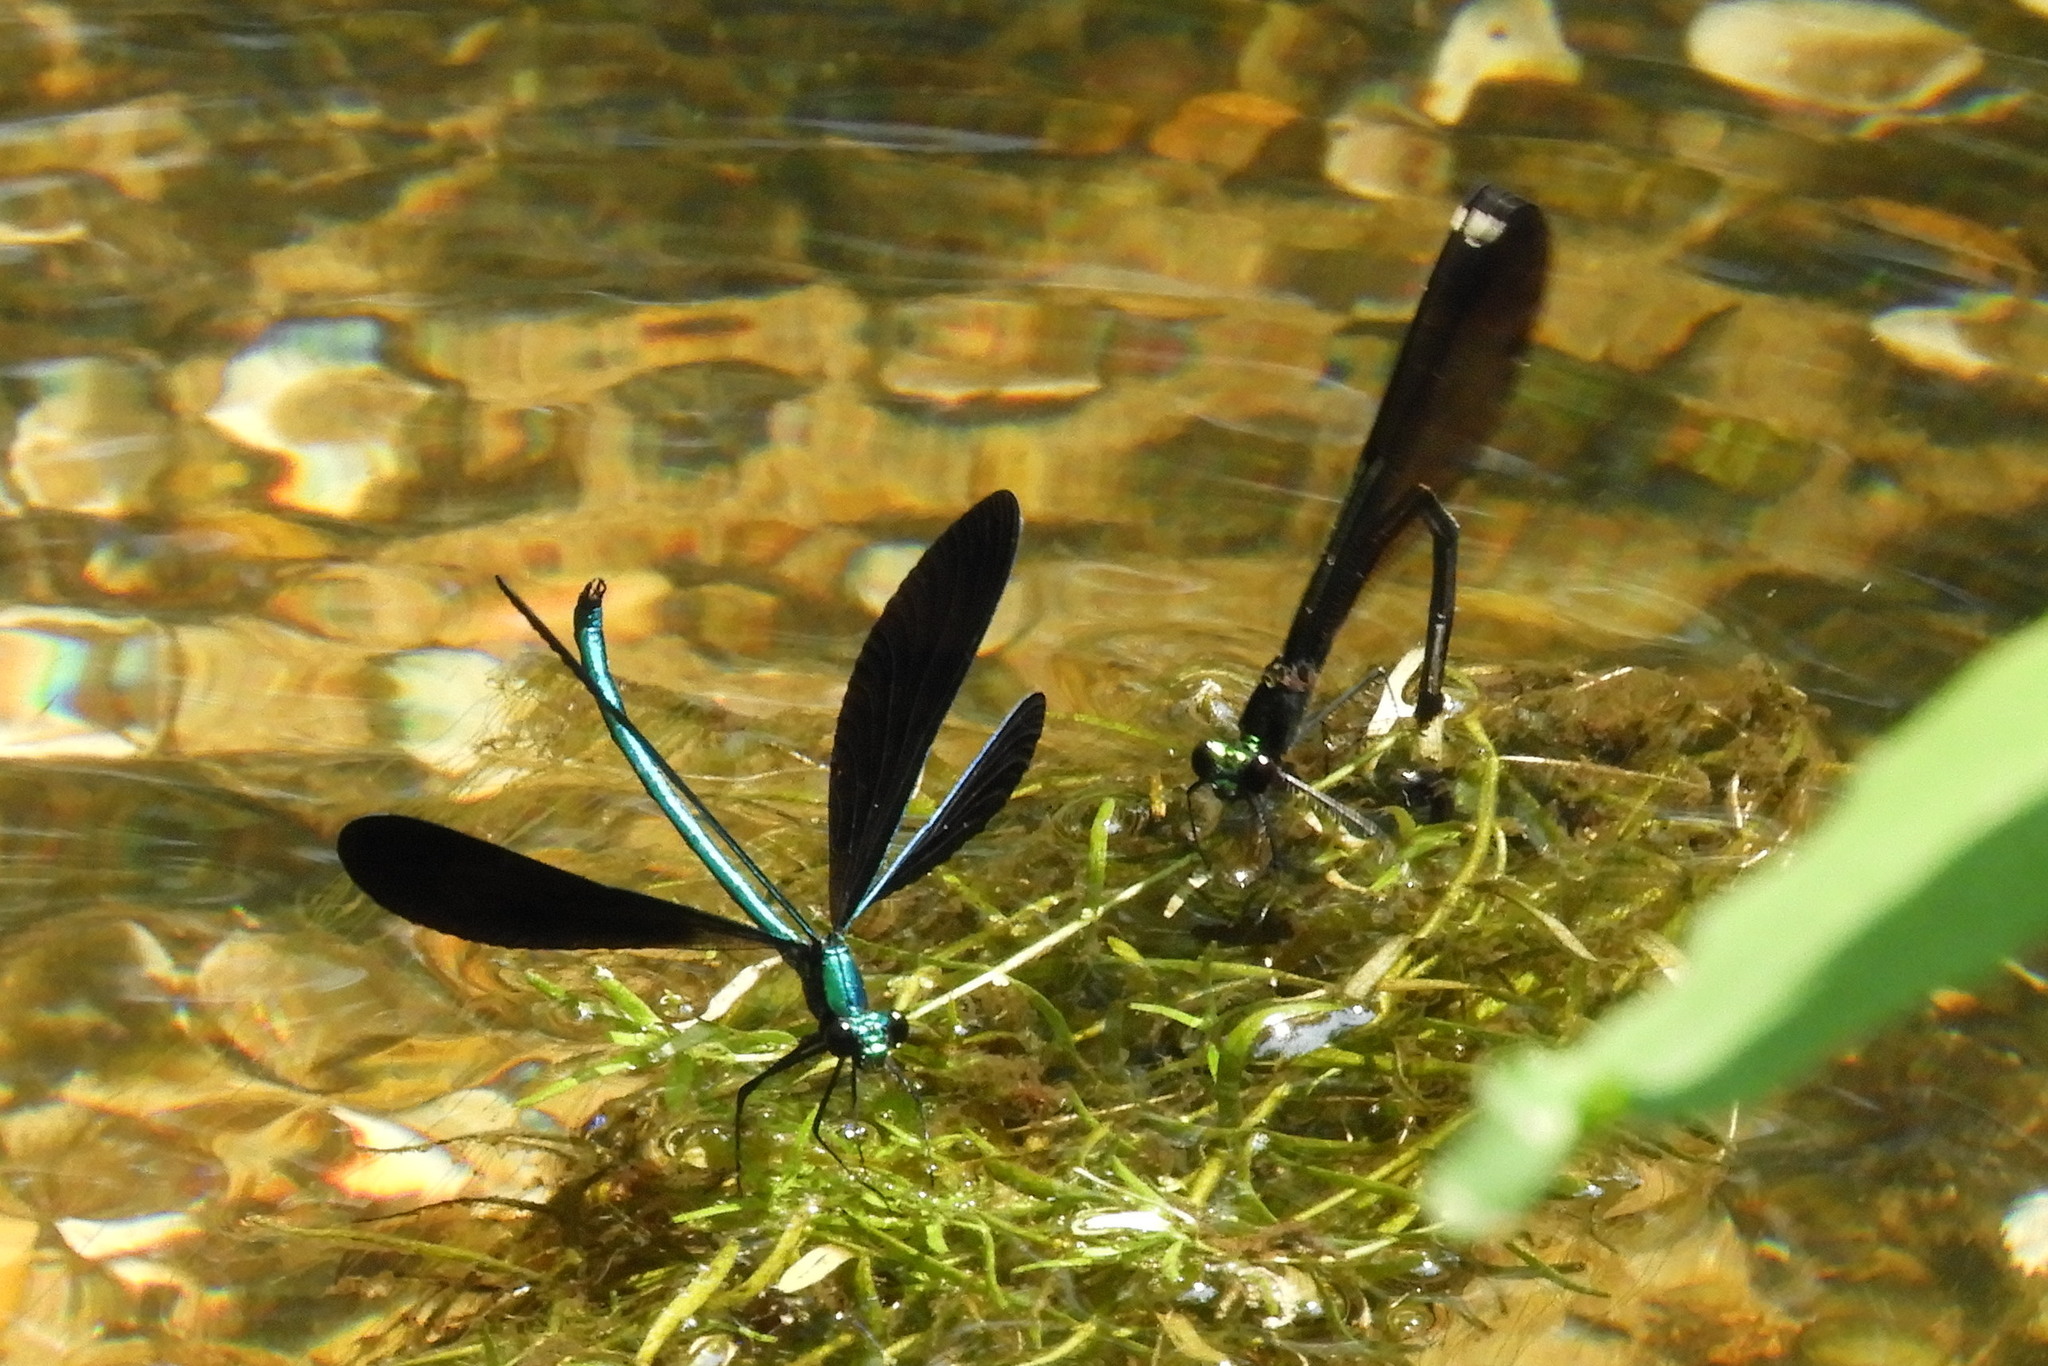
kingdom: Animalia
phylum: Arthropoda
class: Insecta
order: Odonata
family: Calopterygidae
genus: Calopteryx
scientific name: Calopteryx maculata
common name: Ebony jewelwing
